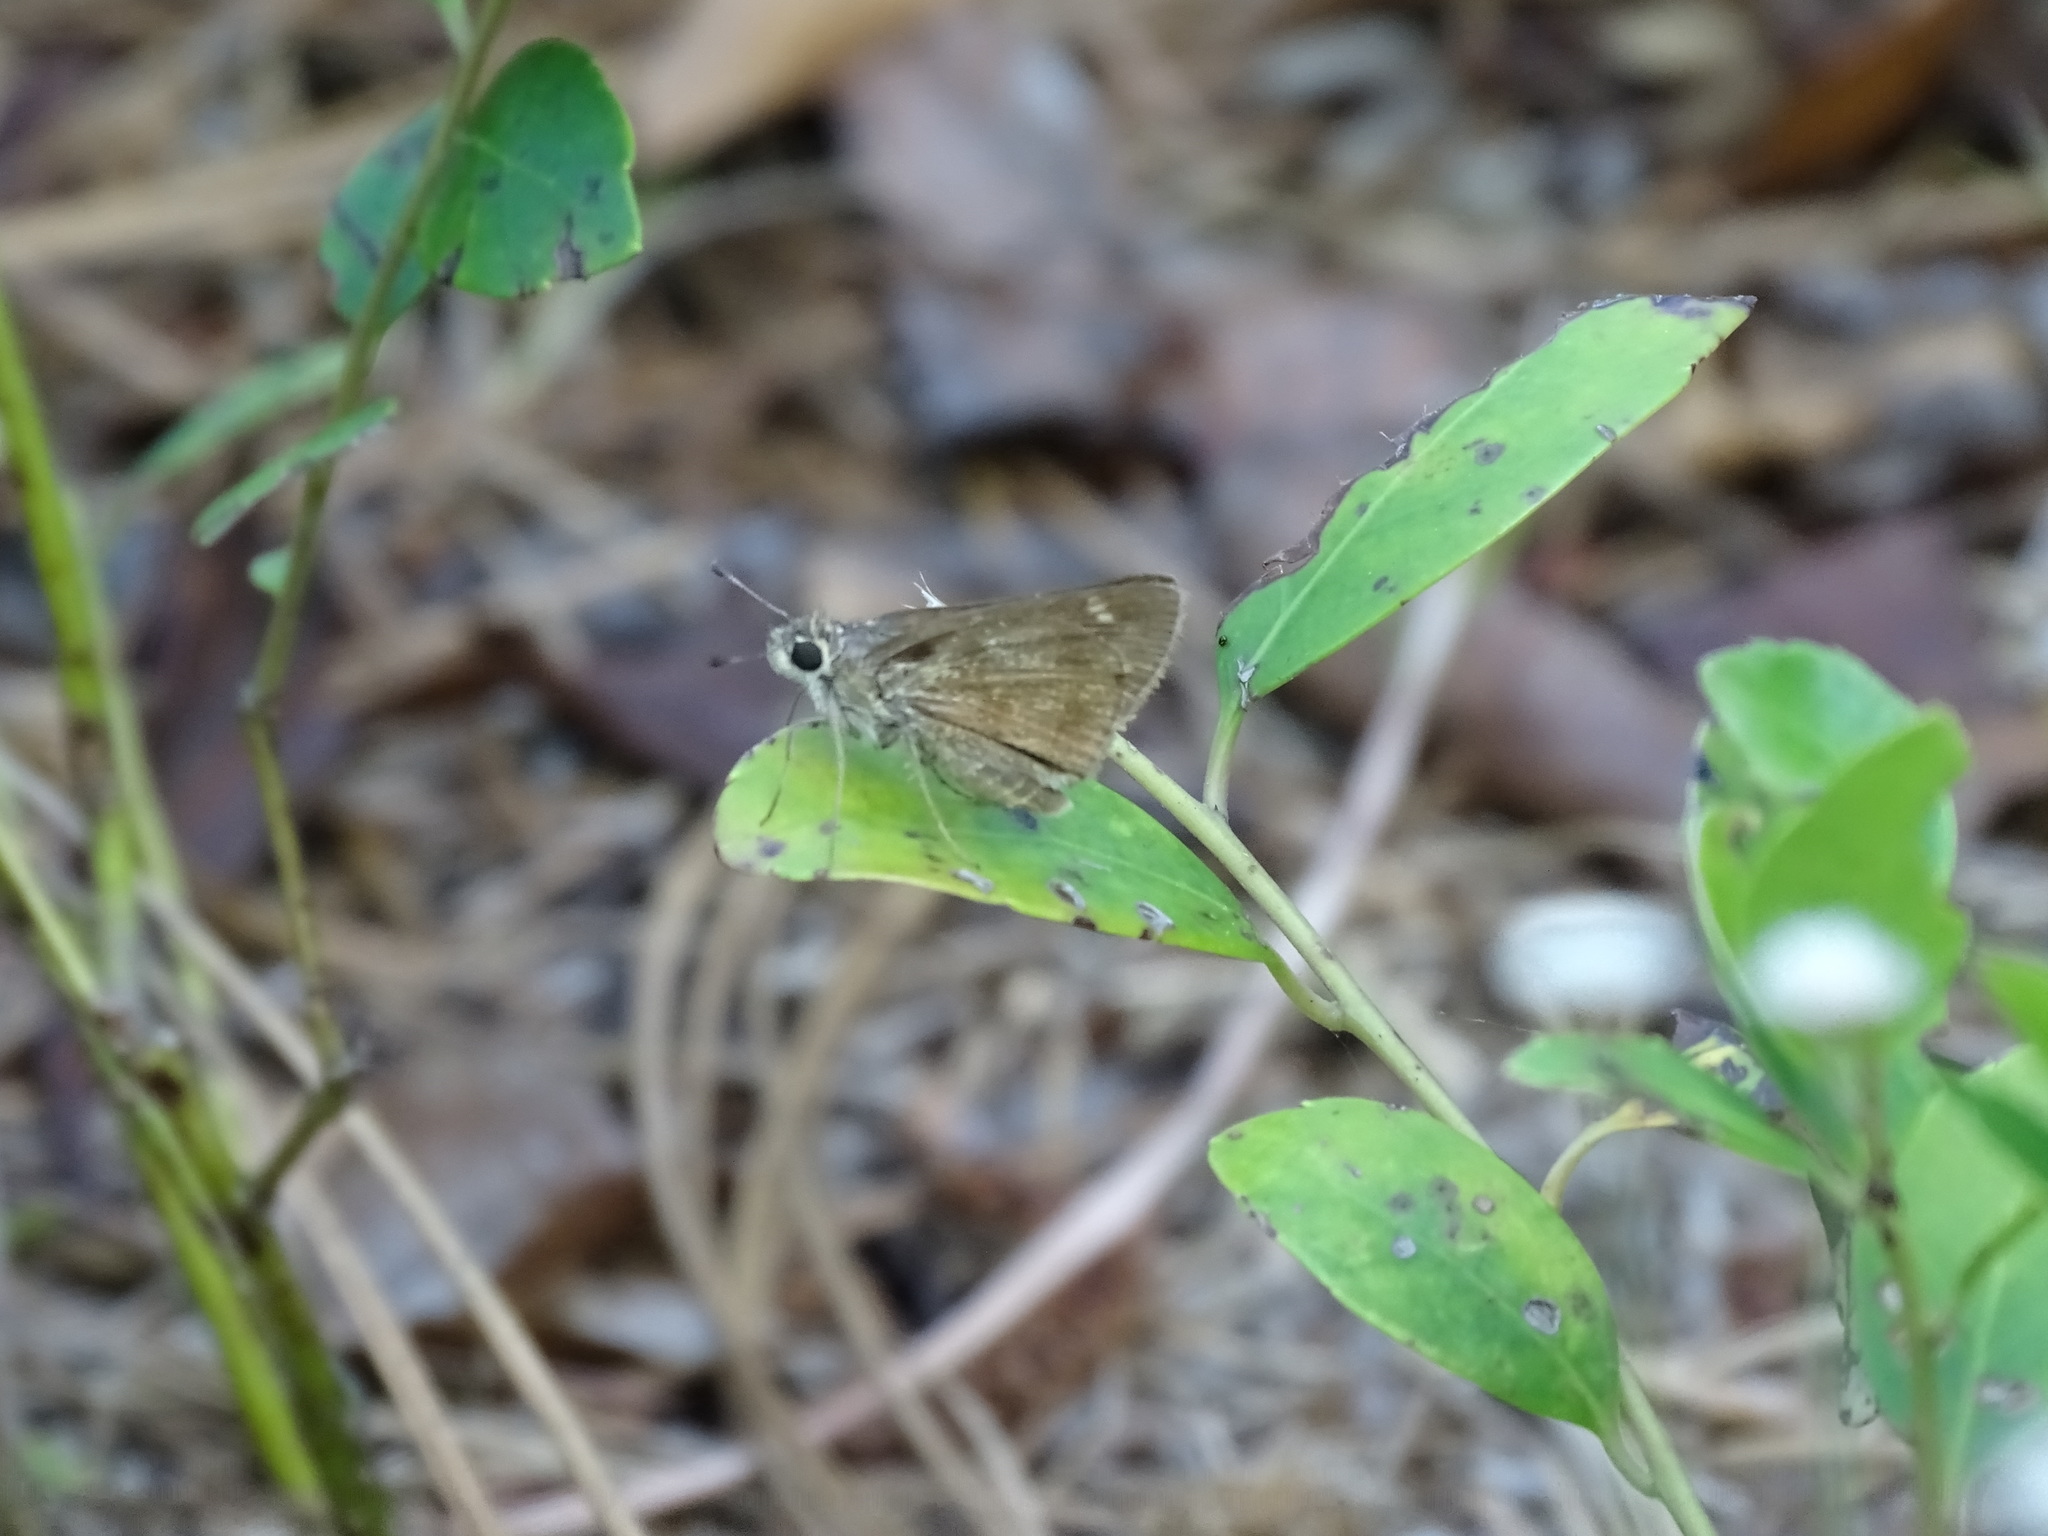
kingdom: Animalia
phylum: Arthropoda
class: Insecta
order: Lepidoptera
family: Hesperiidae
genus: Polites
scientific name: Polites vibex
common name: Whirlabout
